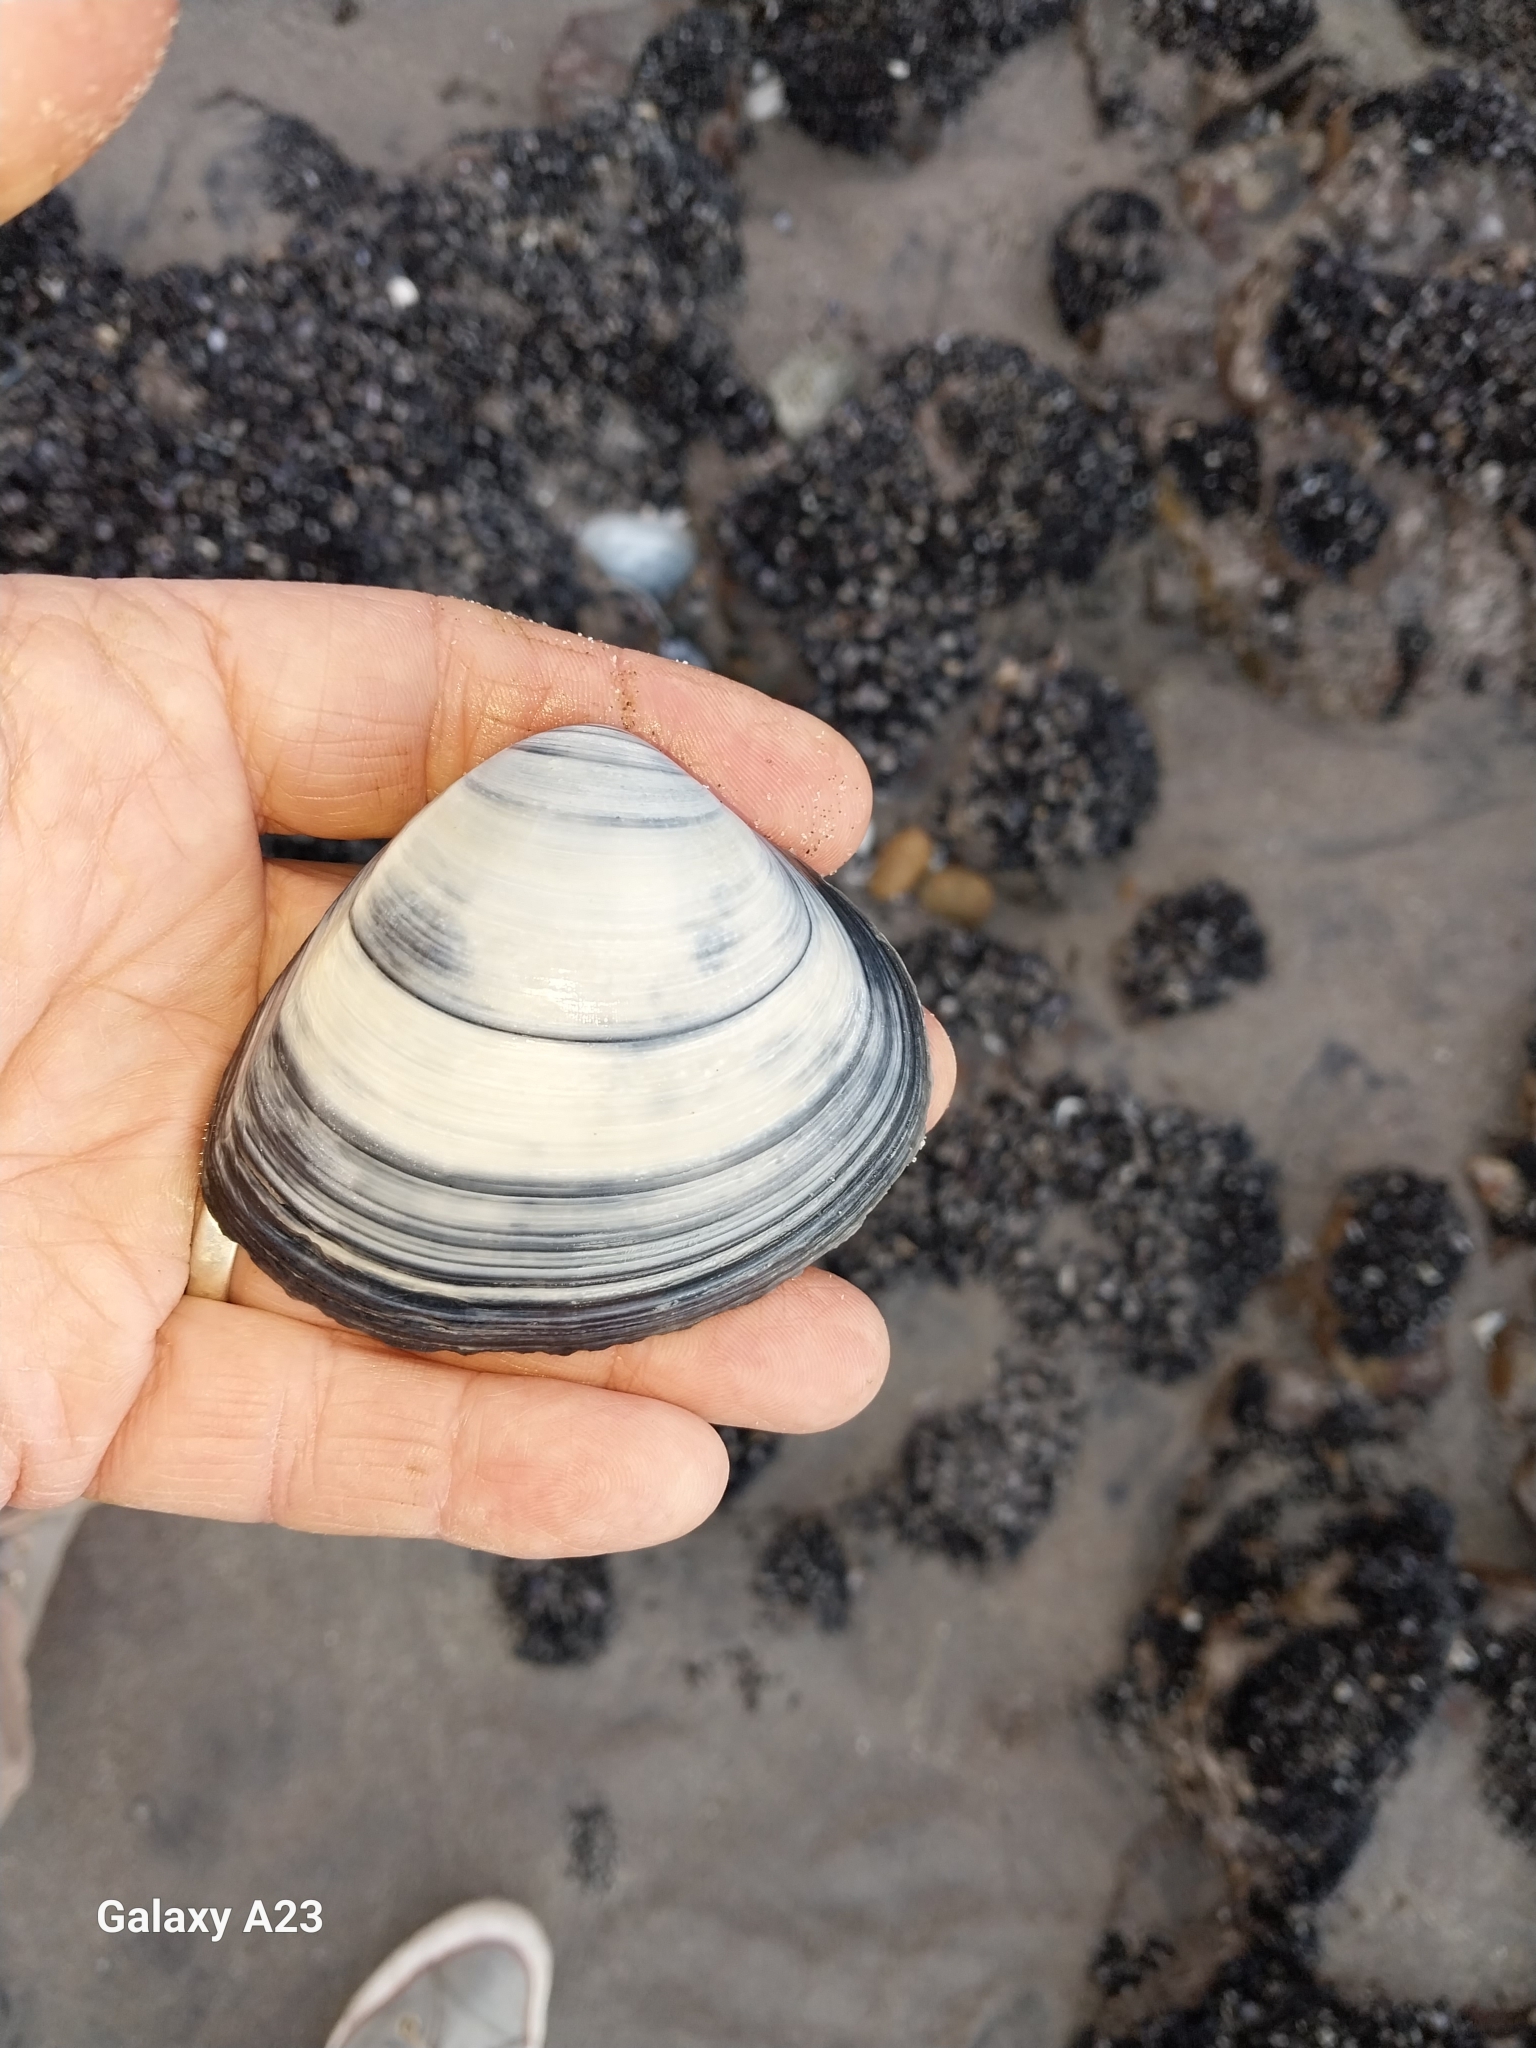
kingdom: Animalia
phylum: Mollusca
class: Bivalvia
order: Venerida
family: Mactridae
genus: Spisula
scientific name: Spisula murchisoni
